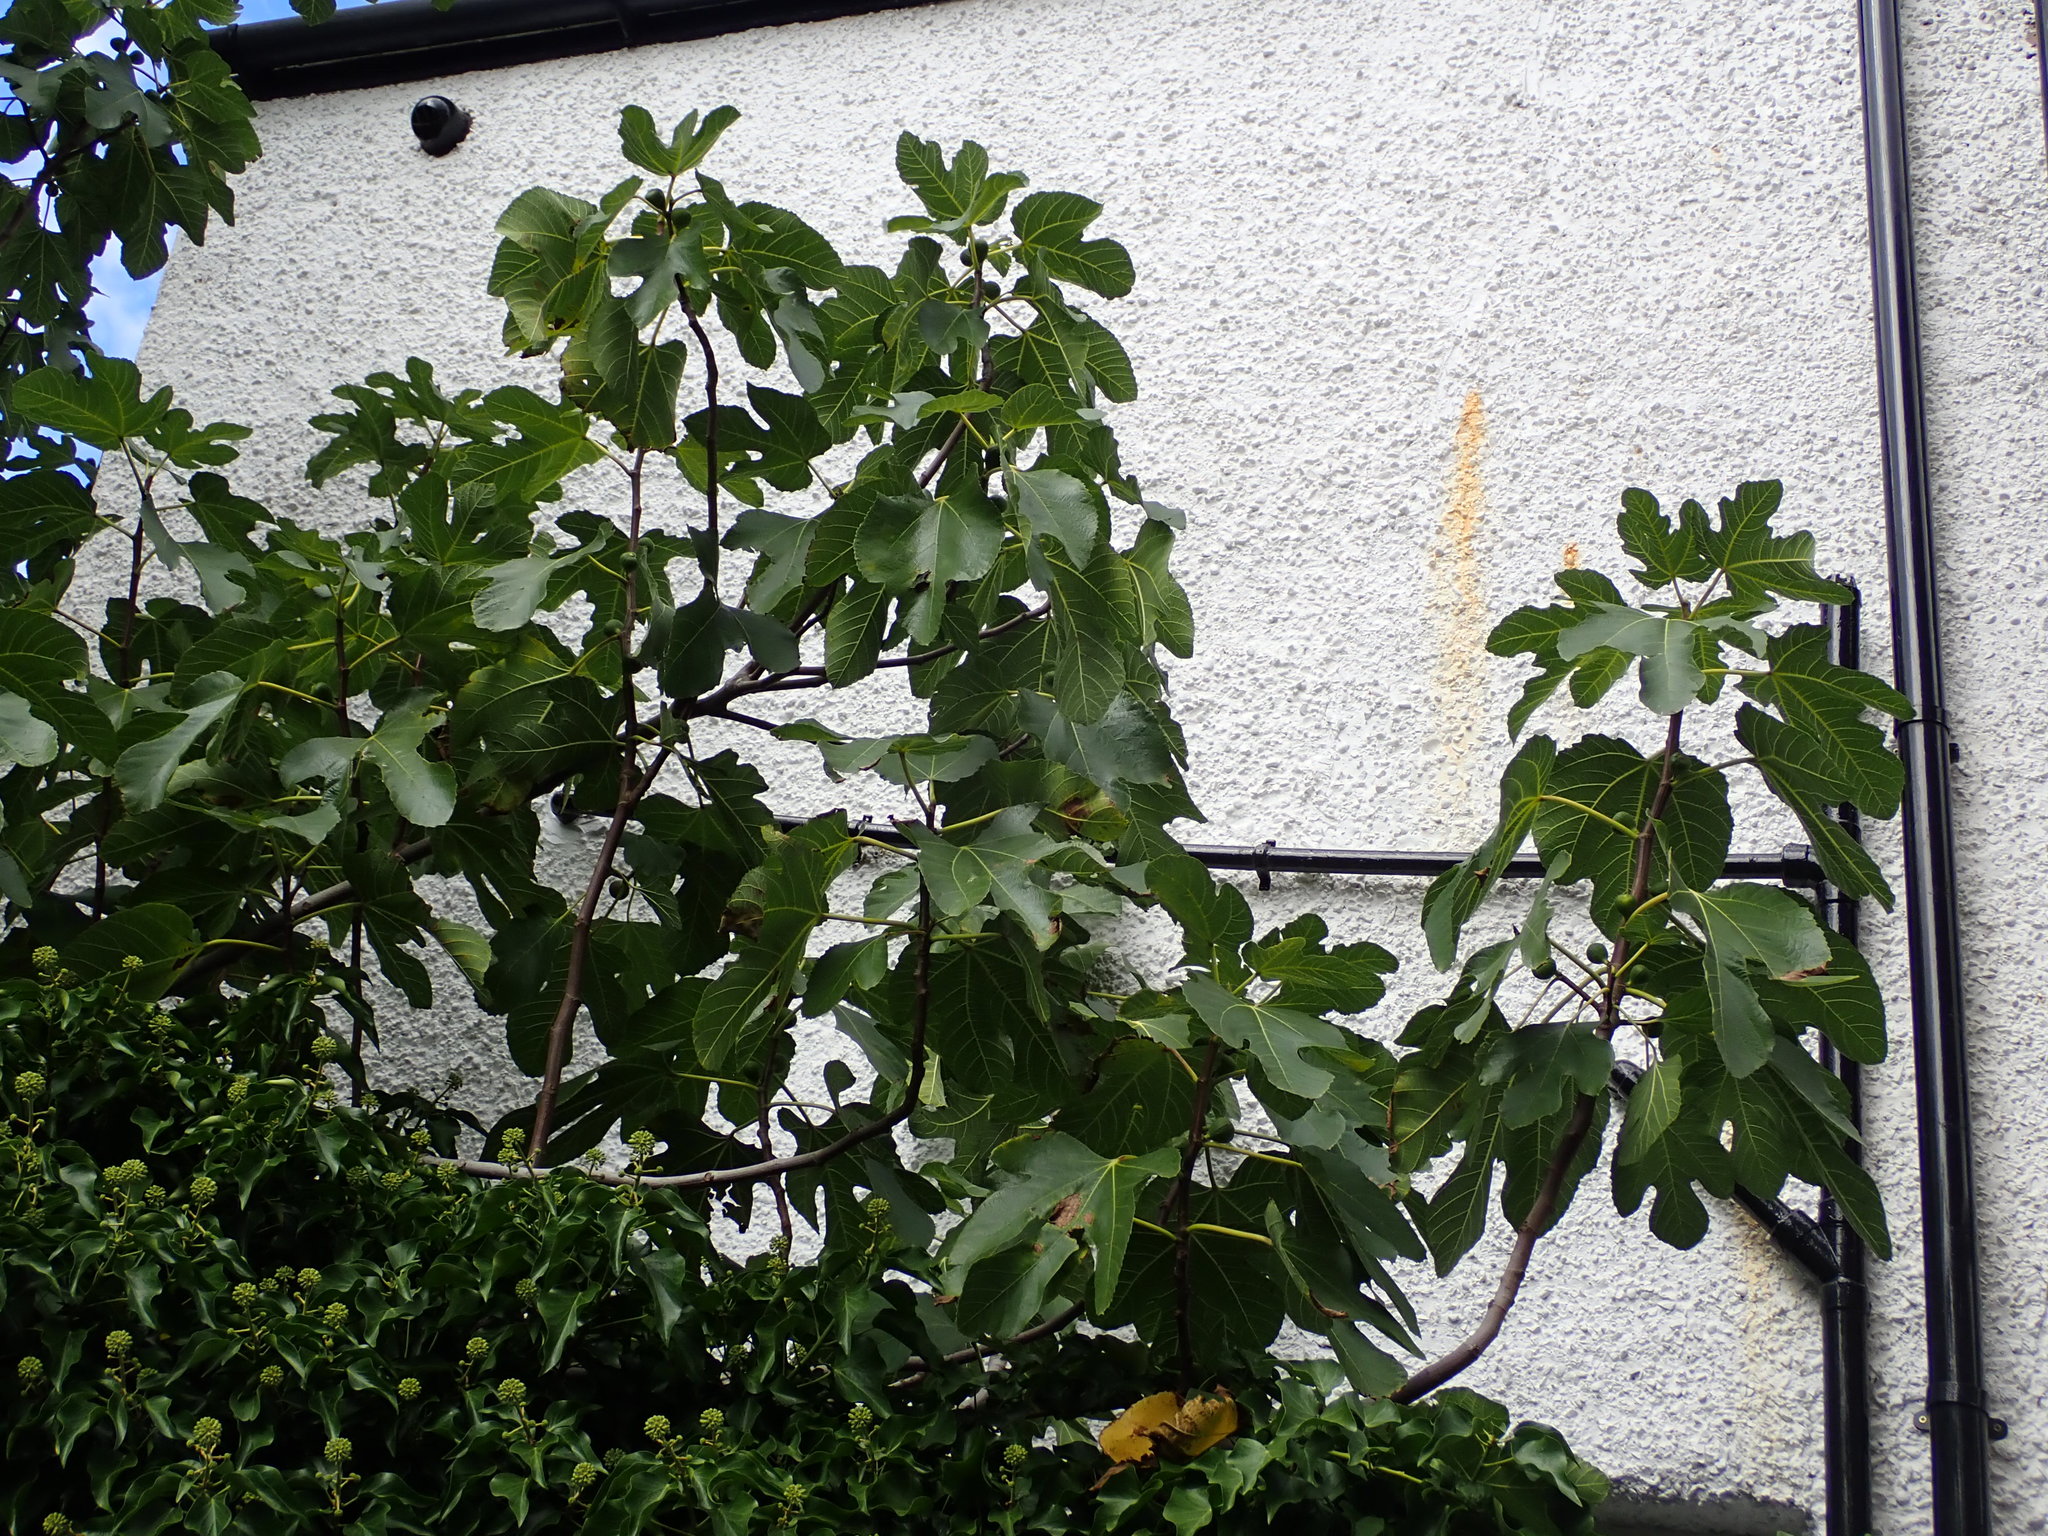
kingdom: Plantae
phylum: Tracheophyta
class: Magnoliopsida
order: Rosales
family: Moraceae
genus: Ficus
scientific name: Ficus carica
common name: Fig
